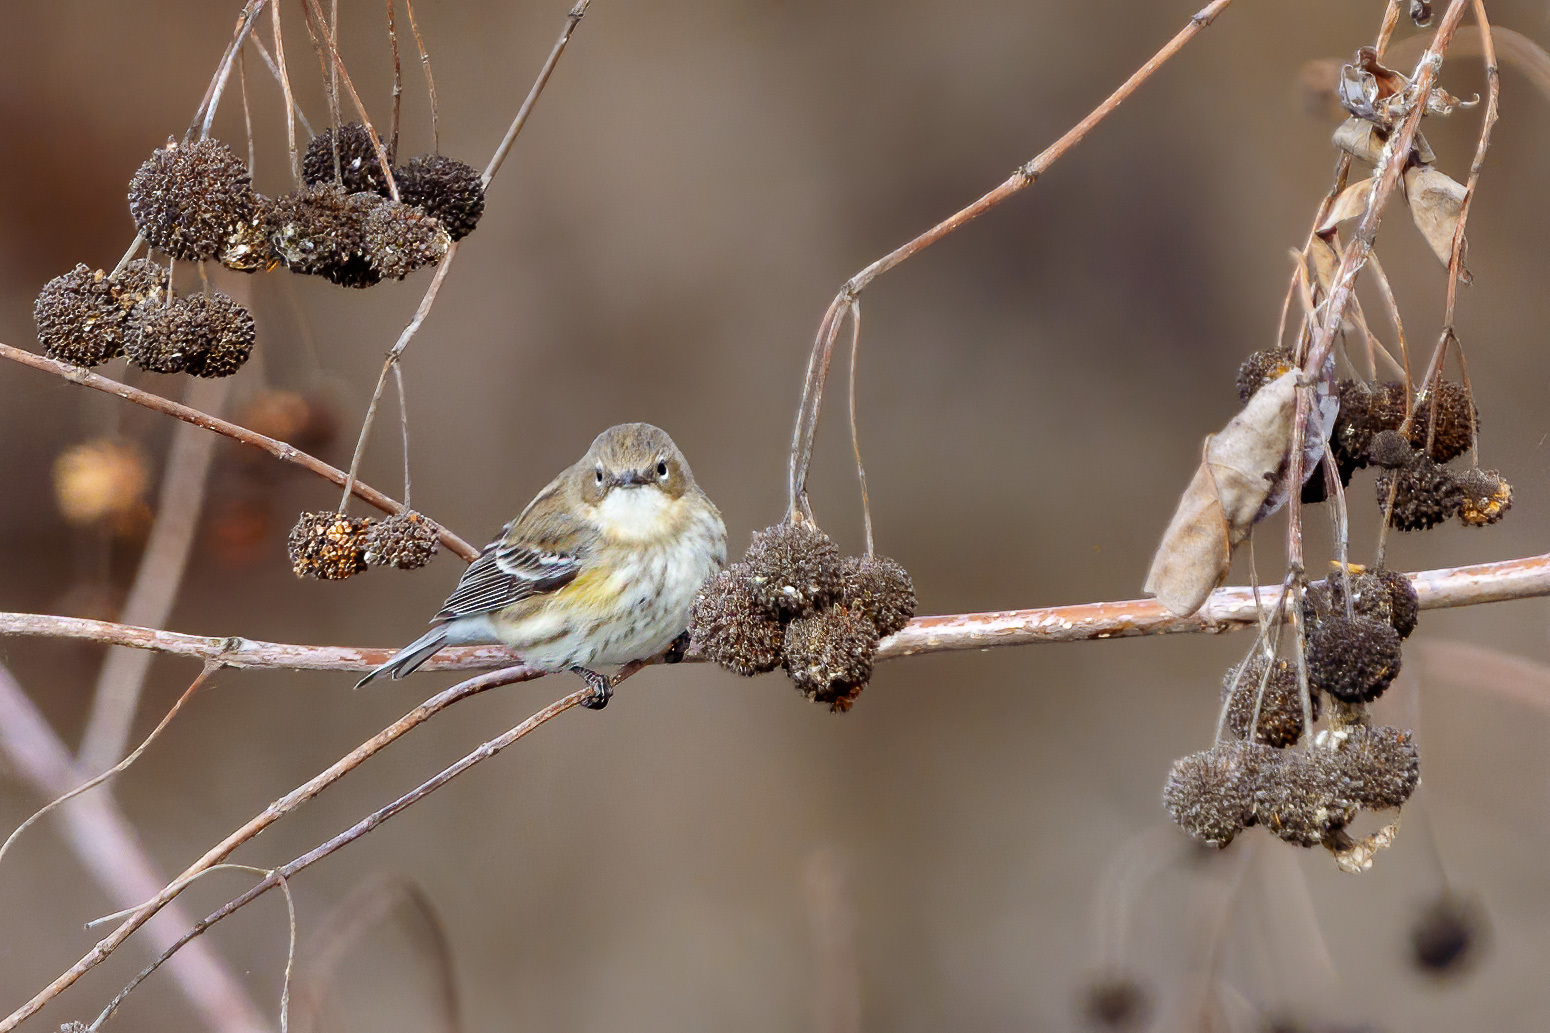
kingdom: Animalia
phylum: Chordata
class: Aves
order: Passeriformes
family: Parulidae
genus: Setophaga
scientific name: Setophaga coronata
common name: Myrtle warbler
